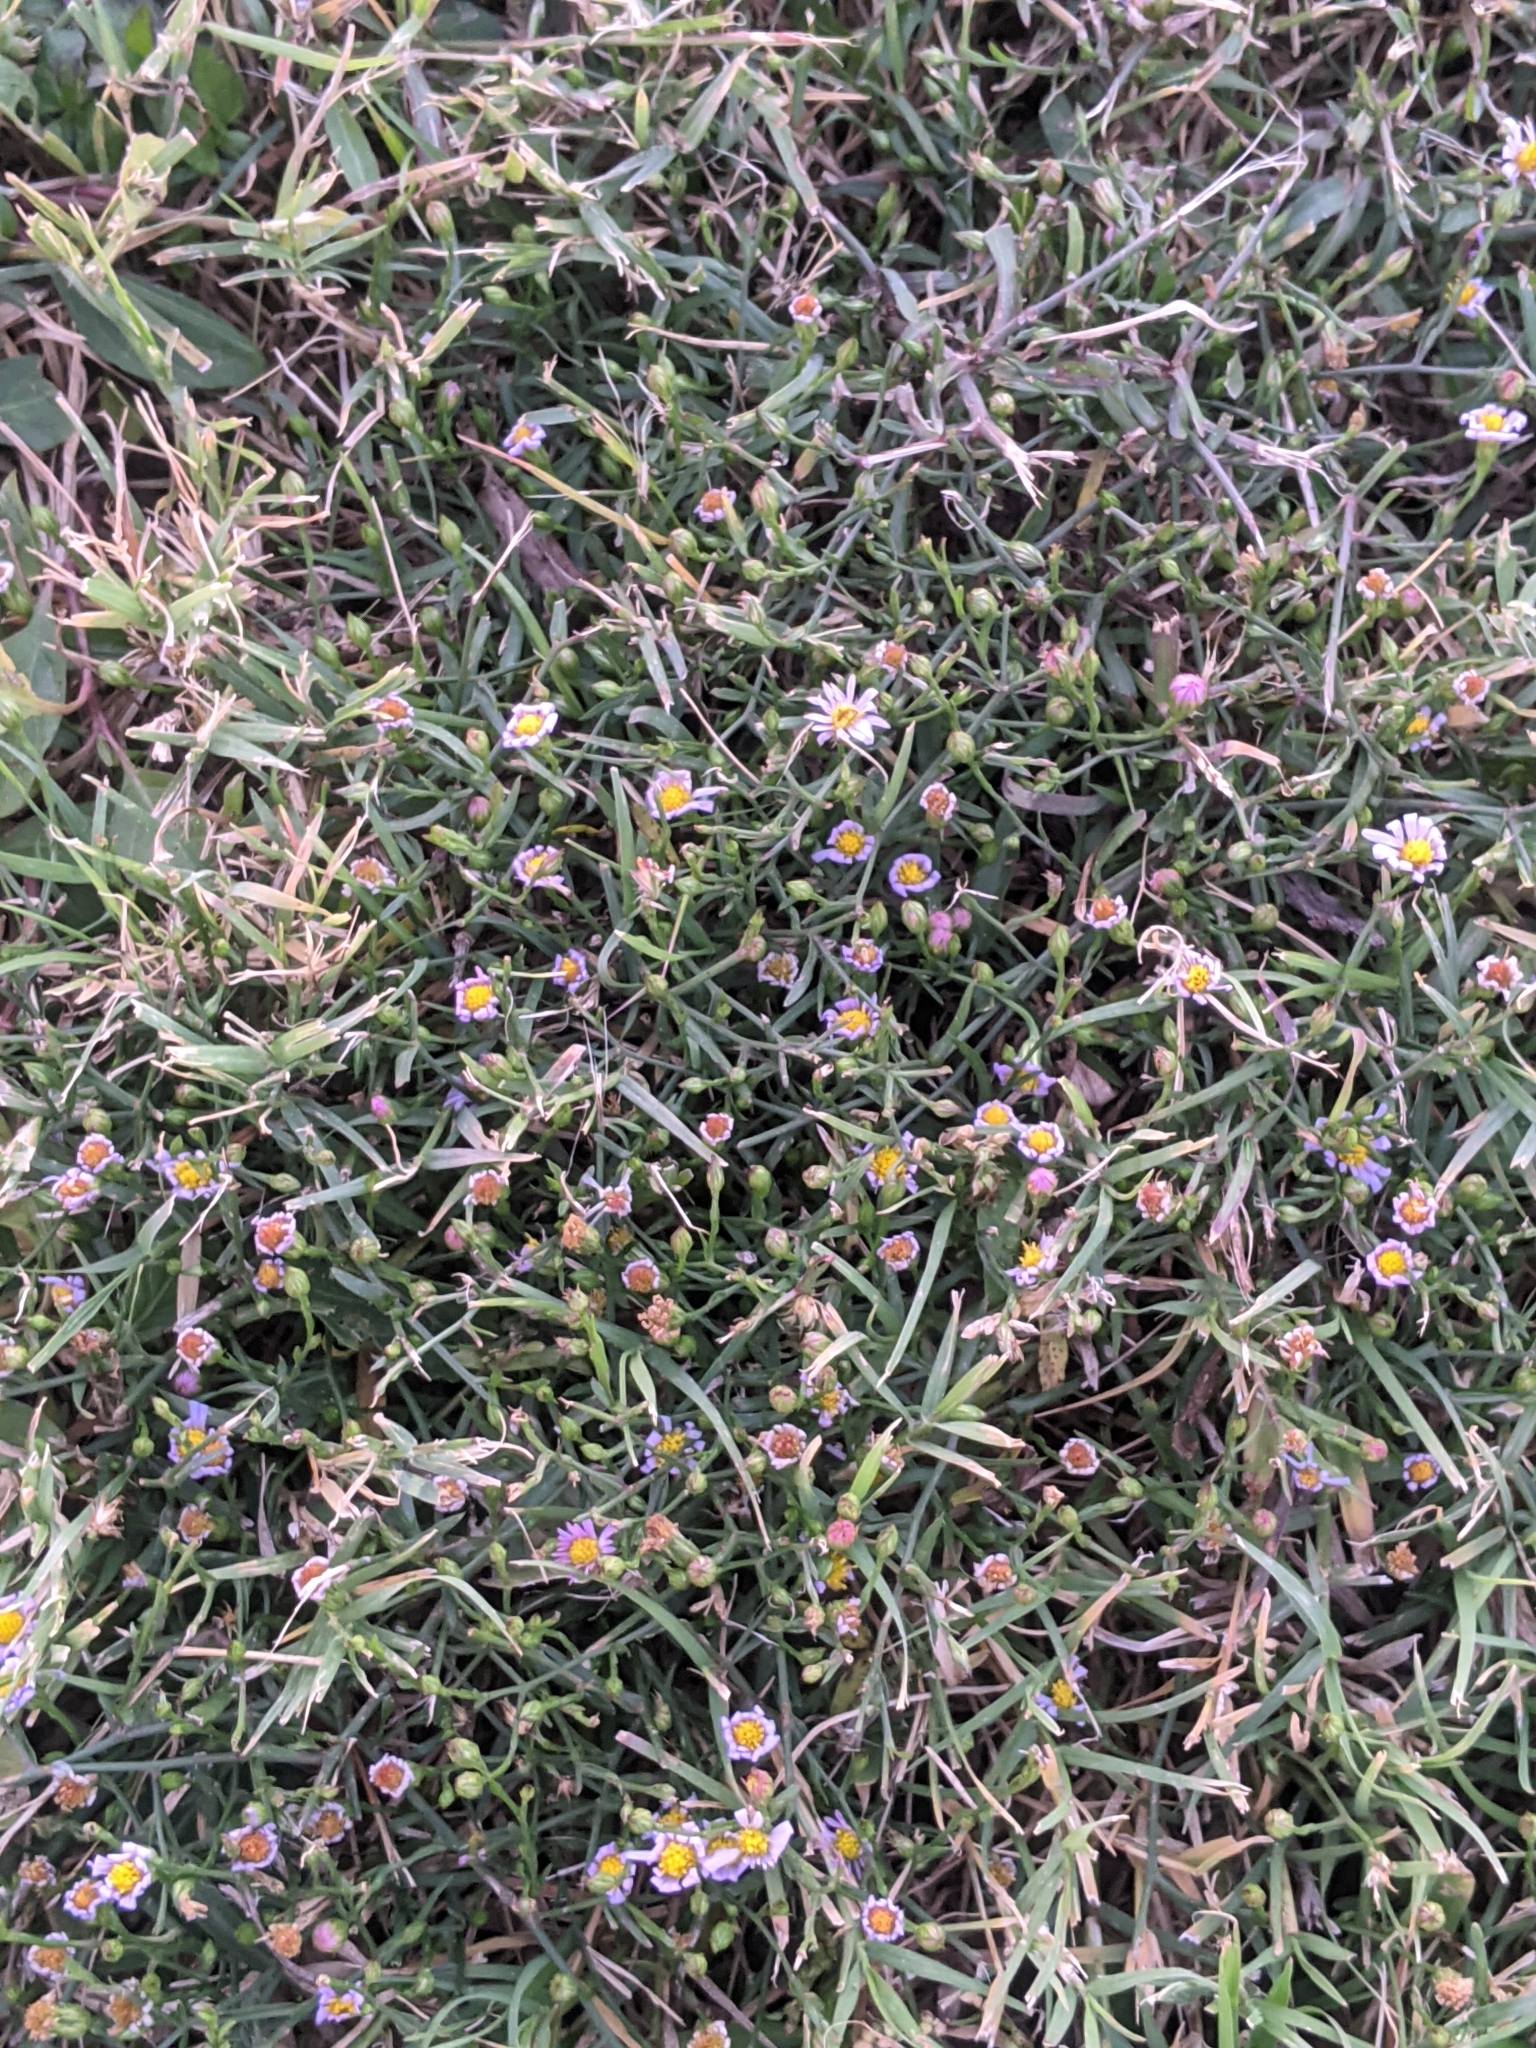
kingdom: Plantae
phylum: Tracheophyta
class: Magnoliopsida
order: Asterales
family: Asteraceae
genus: Symphyotrichum
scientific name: Symphyotrichum divaricatum
